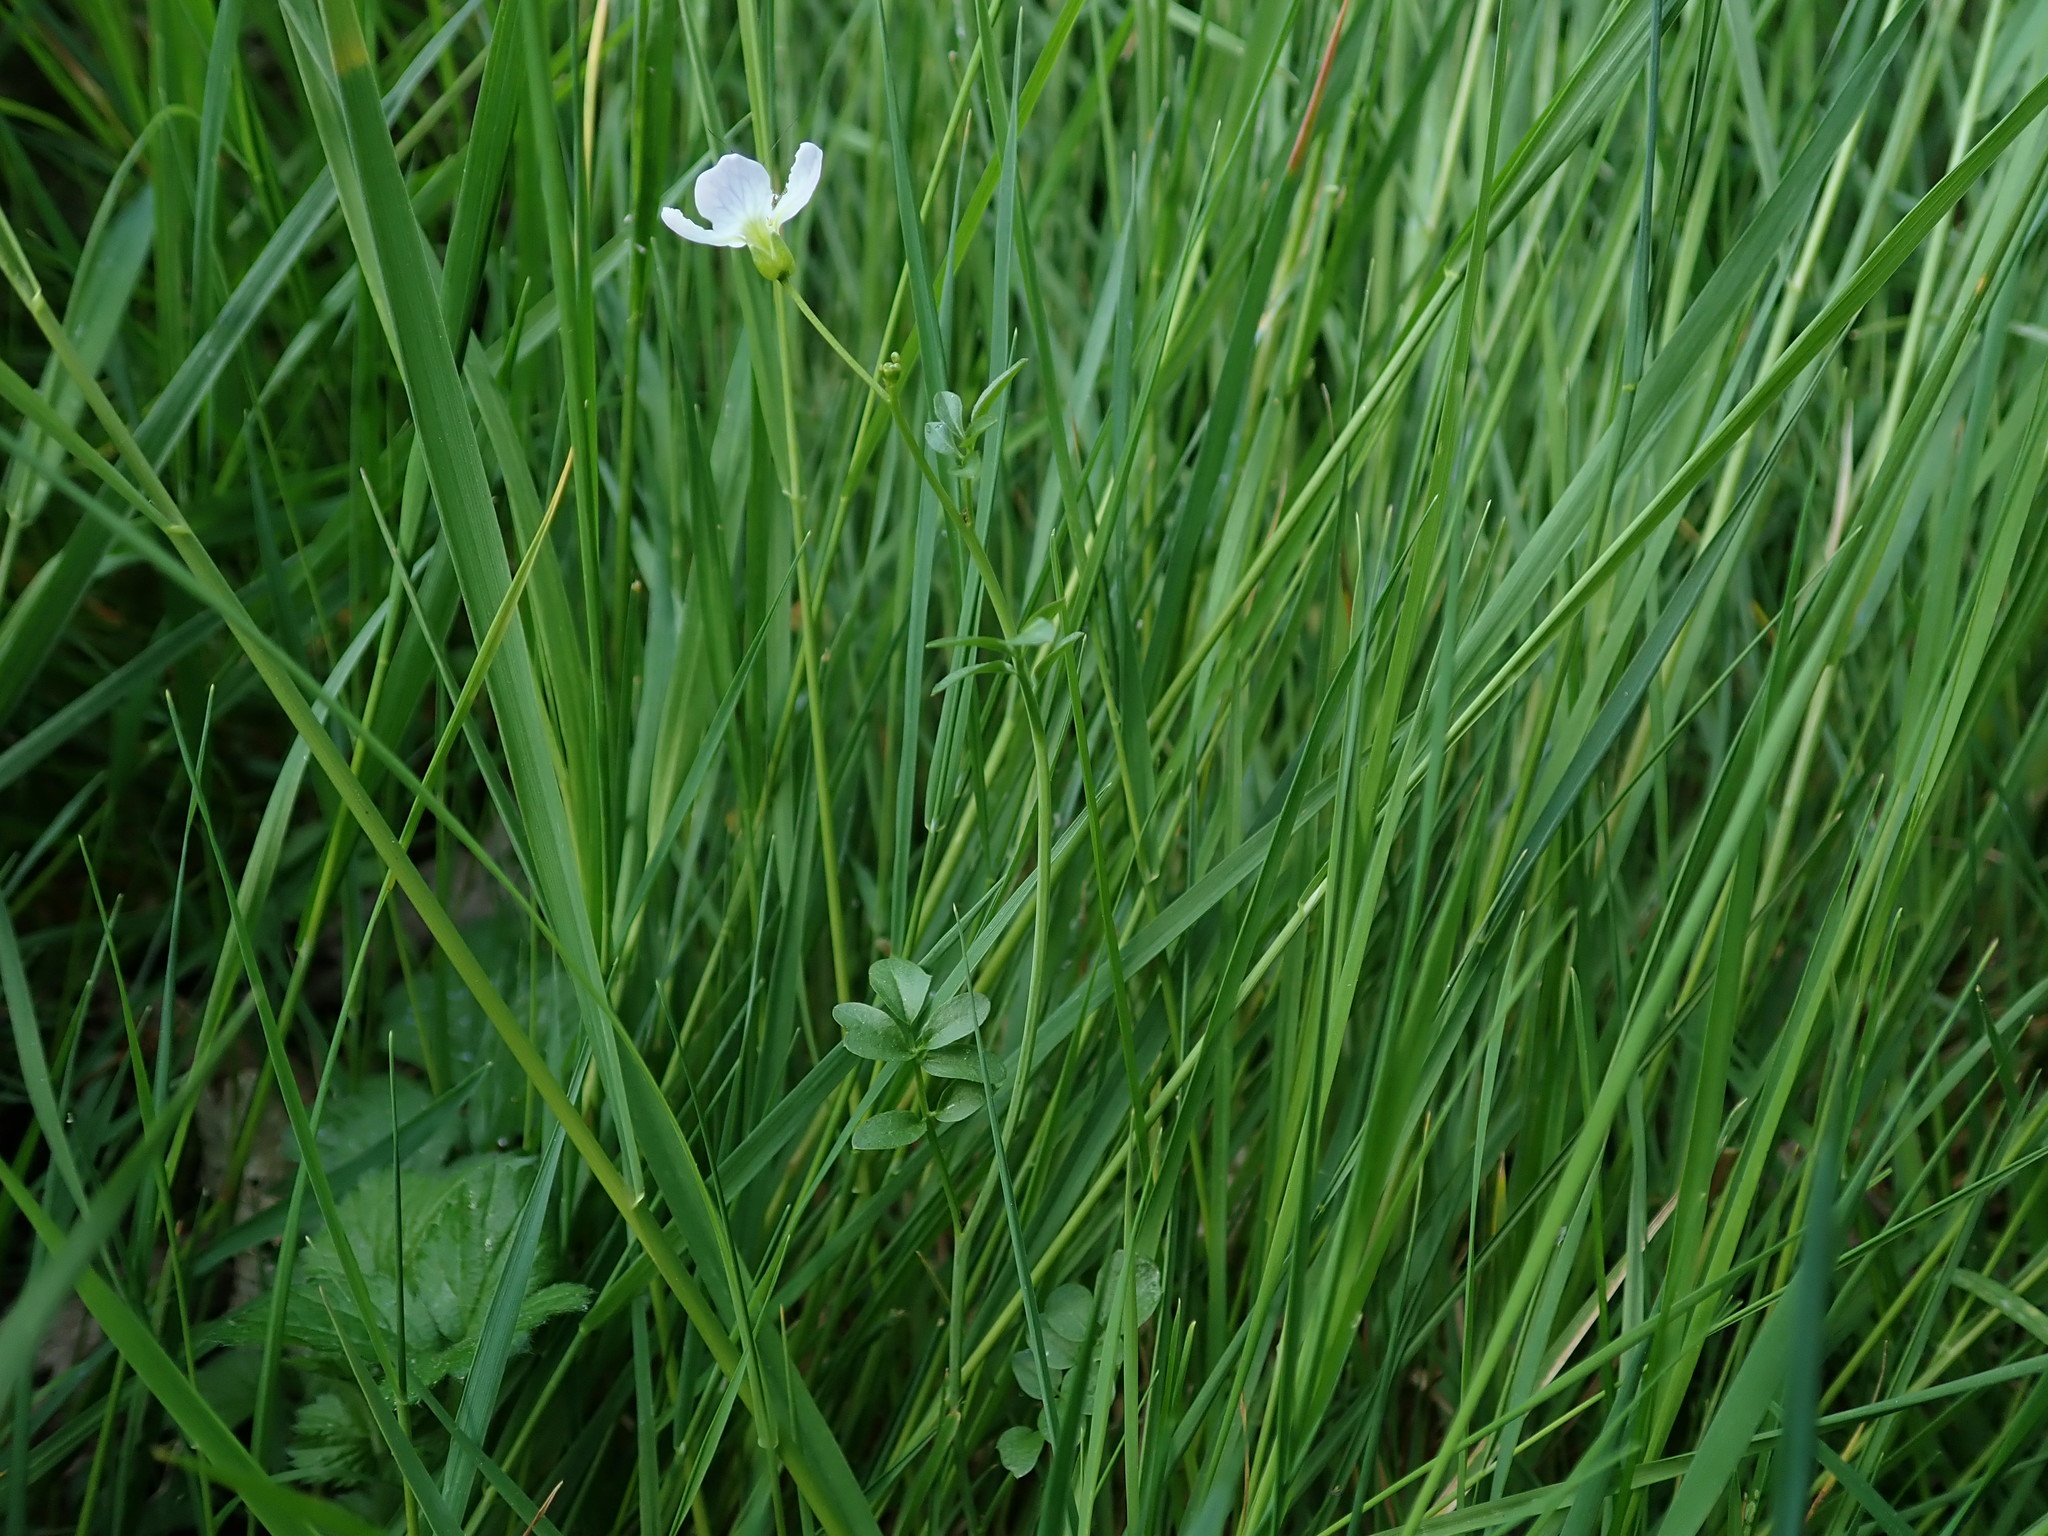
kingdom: Plantae
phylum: Tracheophyta
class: Magnoliopsida
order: Brassicales
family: Brassicaceae
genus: Cardamine
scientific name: Cardamine pratensis
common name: Cuckoo flower
